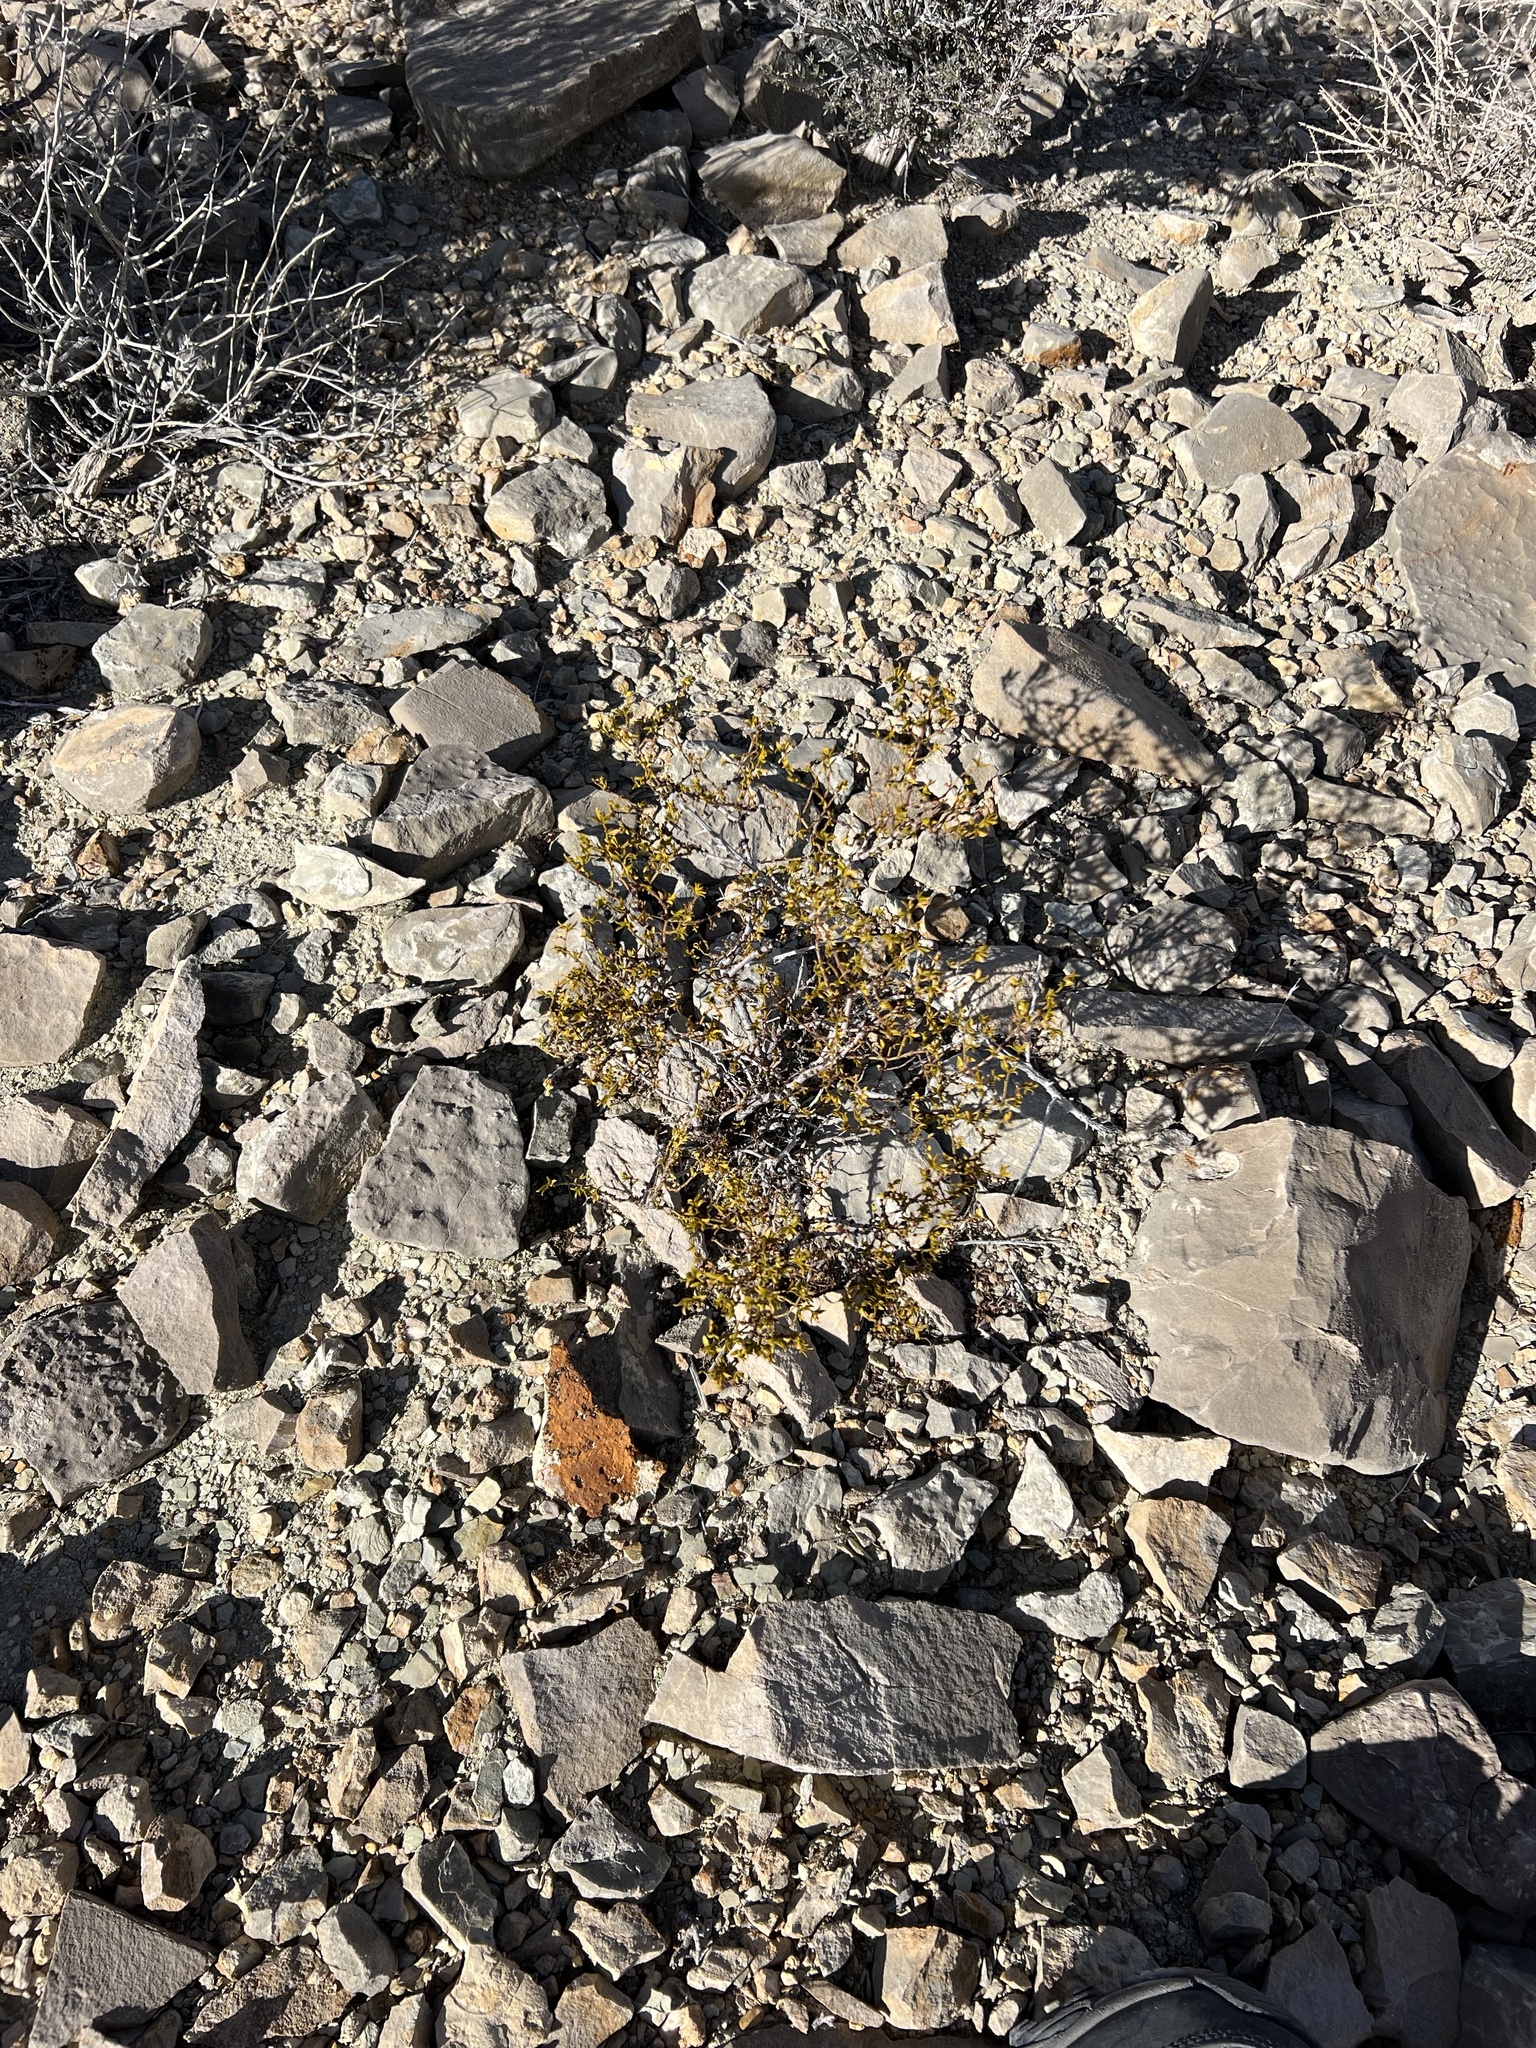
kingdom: Plantae
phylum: Tracheophyta
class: Magnoliopsida
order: Zygophyllales
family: Zygophyllaceae
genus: Larrea
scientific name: Larrea tridentata
